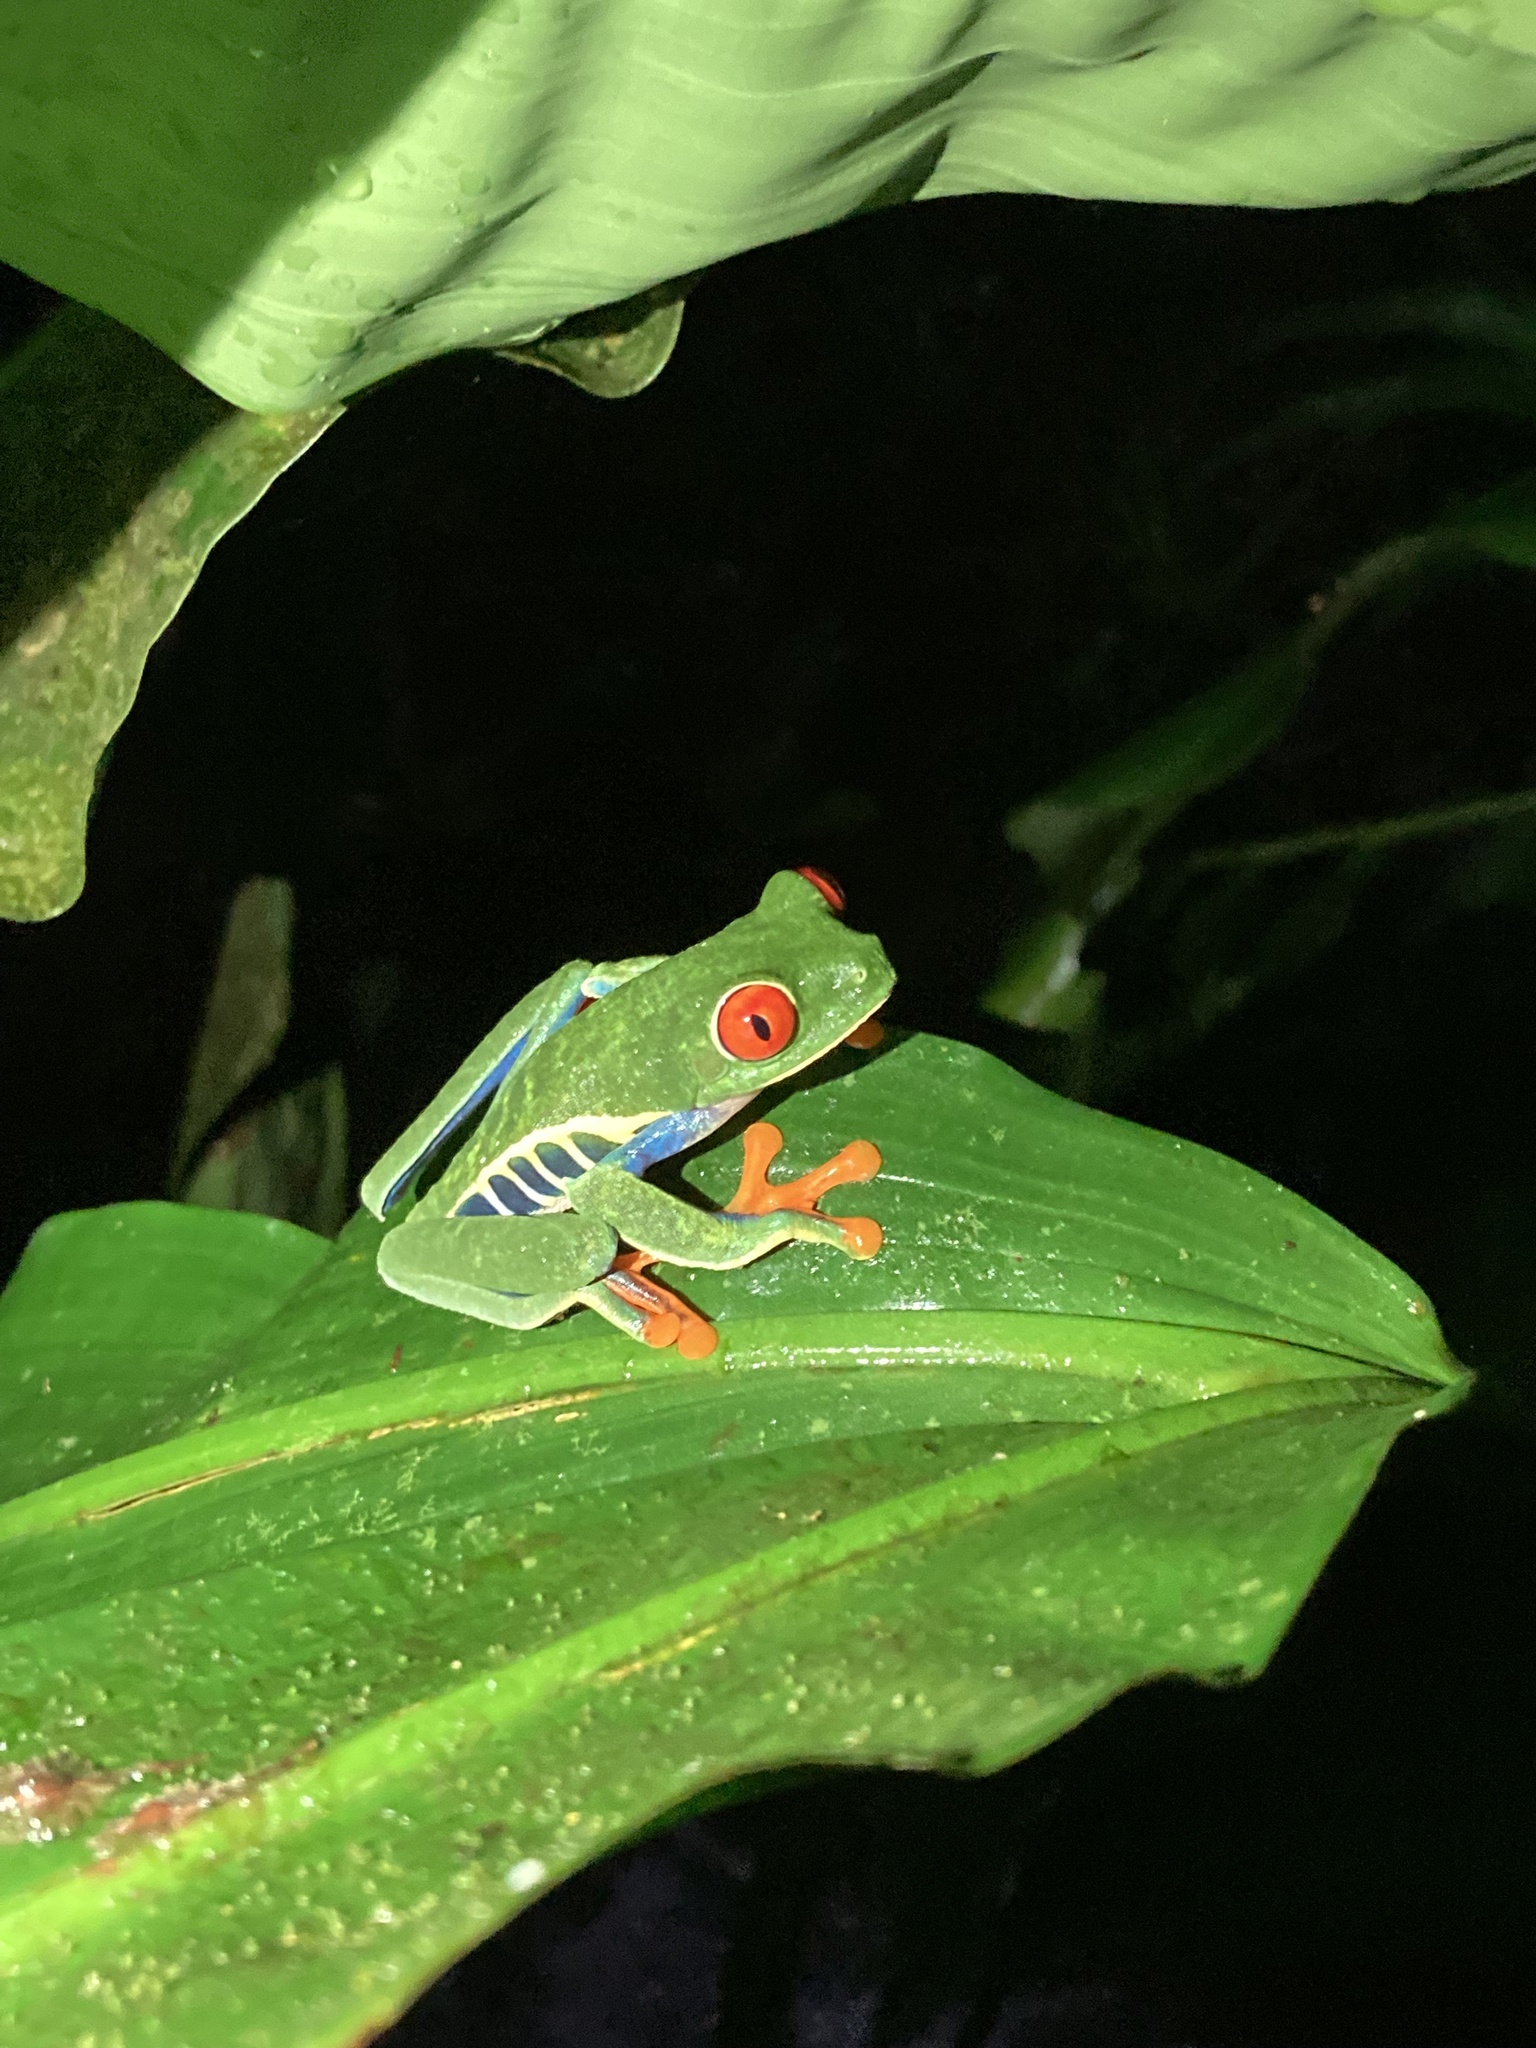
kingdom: Animalia
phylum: Chordata
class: Amphibia
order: Anura
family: Phyllomedusidae
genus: Agalychnis
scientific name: Agalychnis callidryas
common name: Red-eyed treefrog
